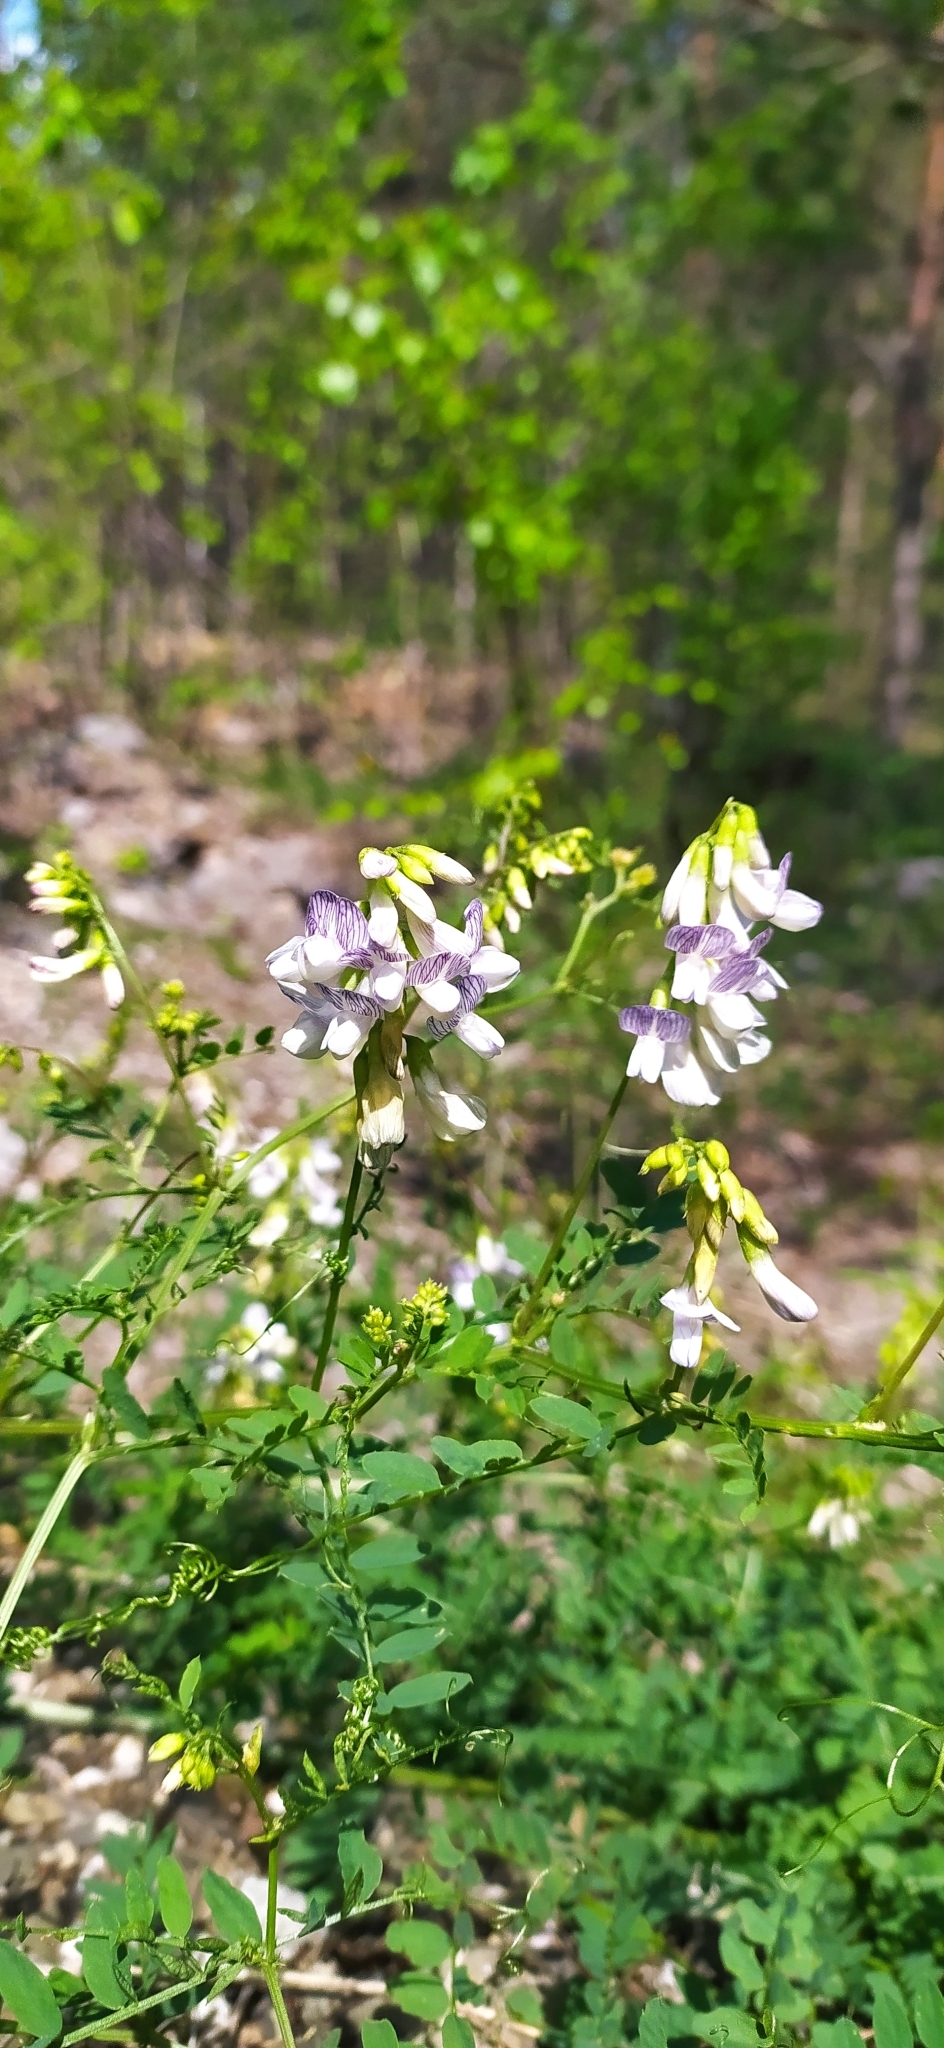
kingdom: Plantae
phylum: Tracheophyta
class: Magnoliopsida
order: Fabales
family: Fabaceae
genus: Vicia
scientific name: Vicia sylvatica
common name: Wood vetch
